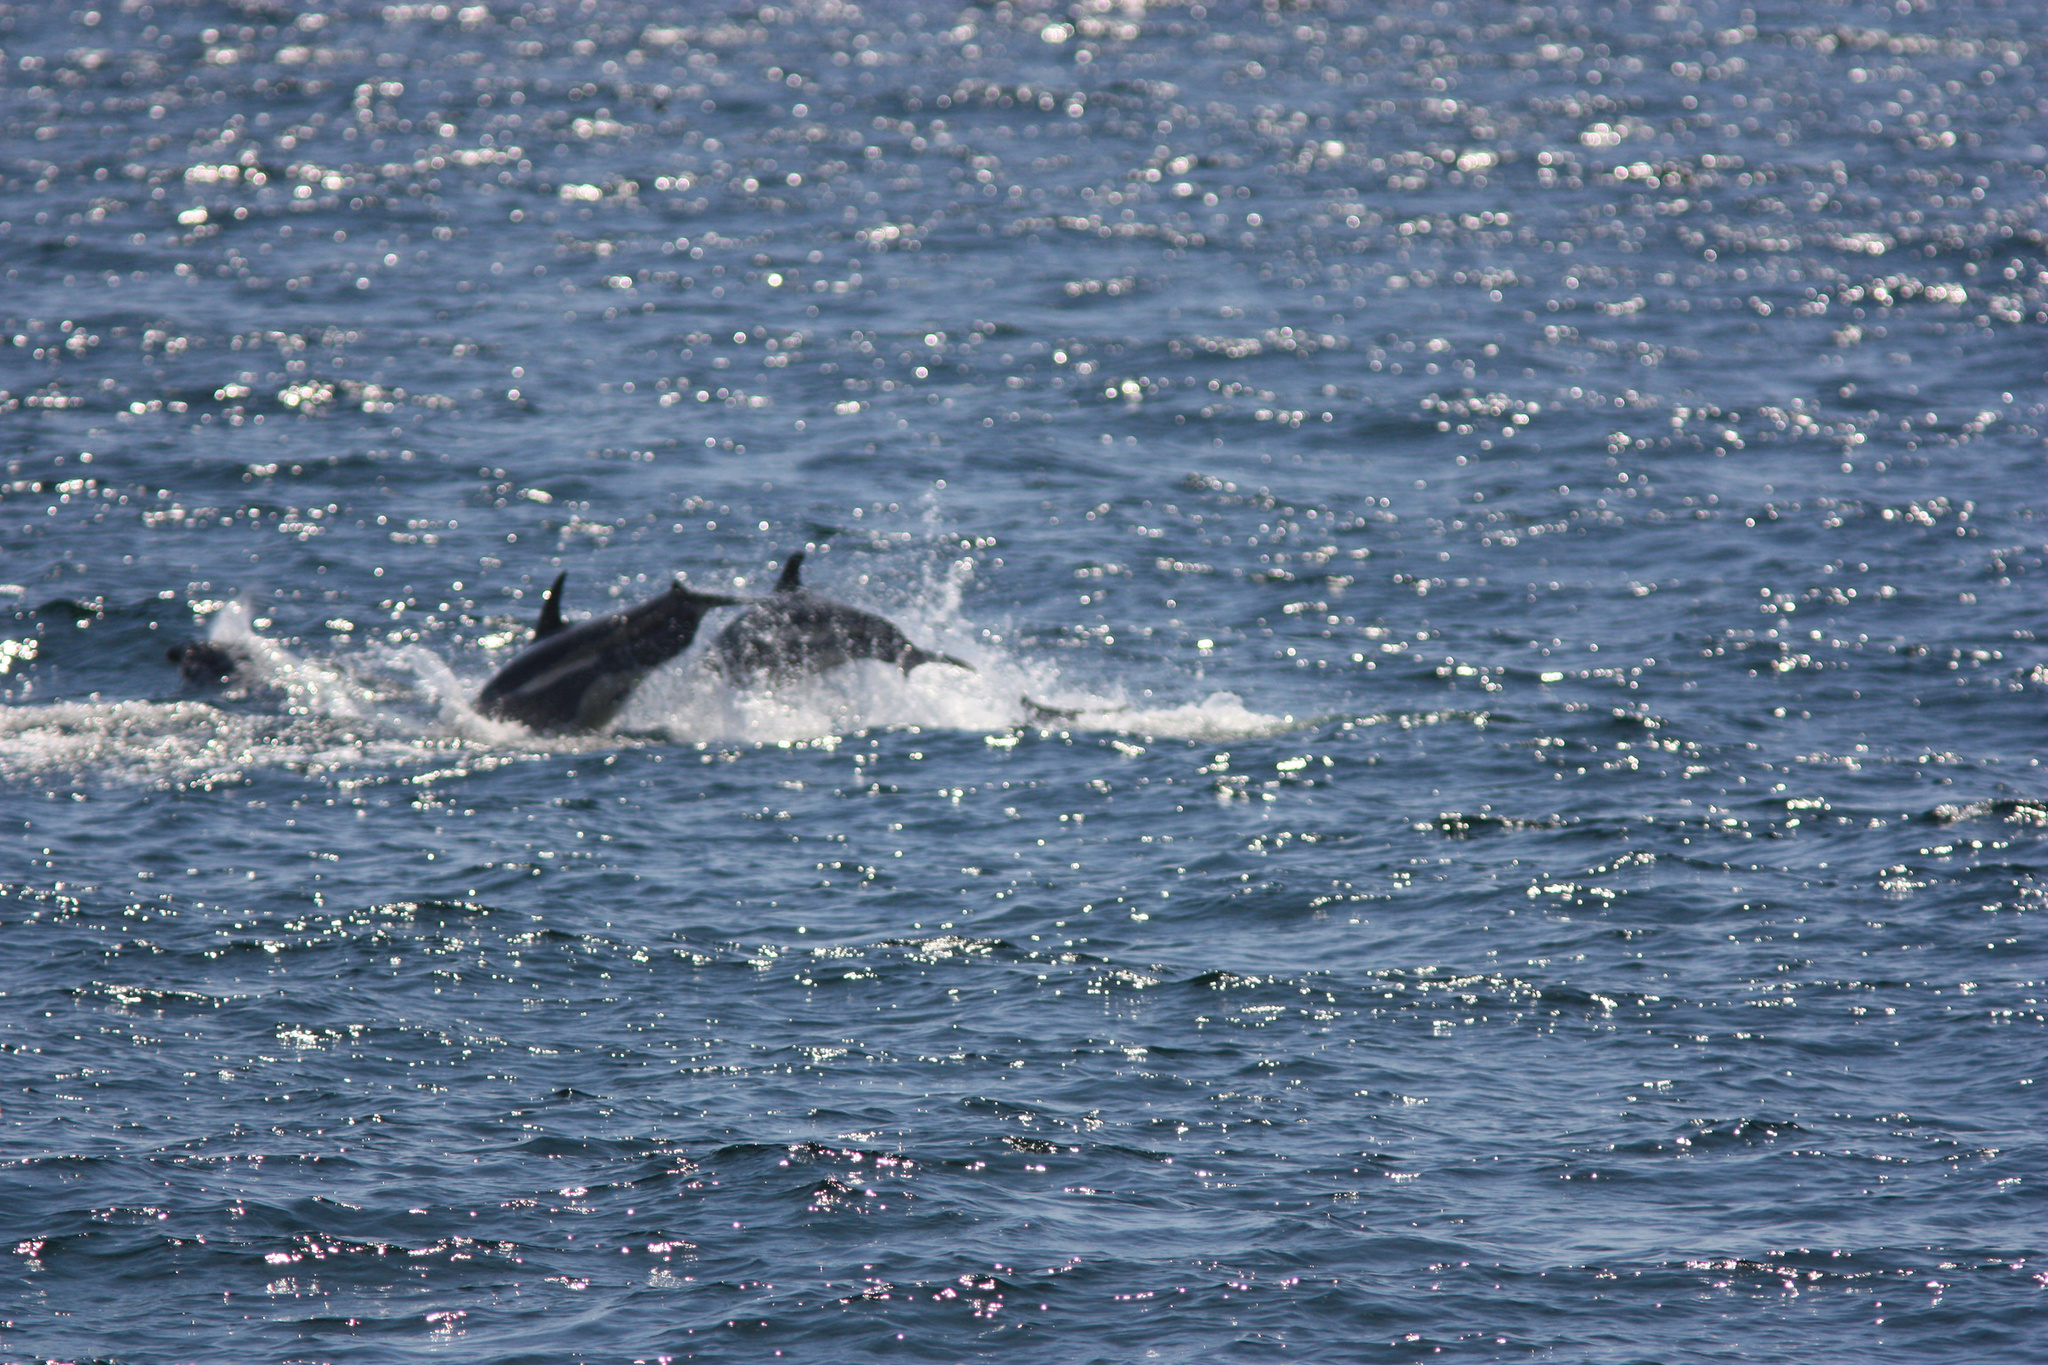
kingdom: Animalia
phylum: Chordata
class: Mammalia
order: Cetacea
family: Delphinidae
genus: Lagenorhynchus
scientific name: Lagenorhynchus acutus
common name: Atlantic white-sided dolphin
